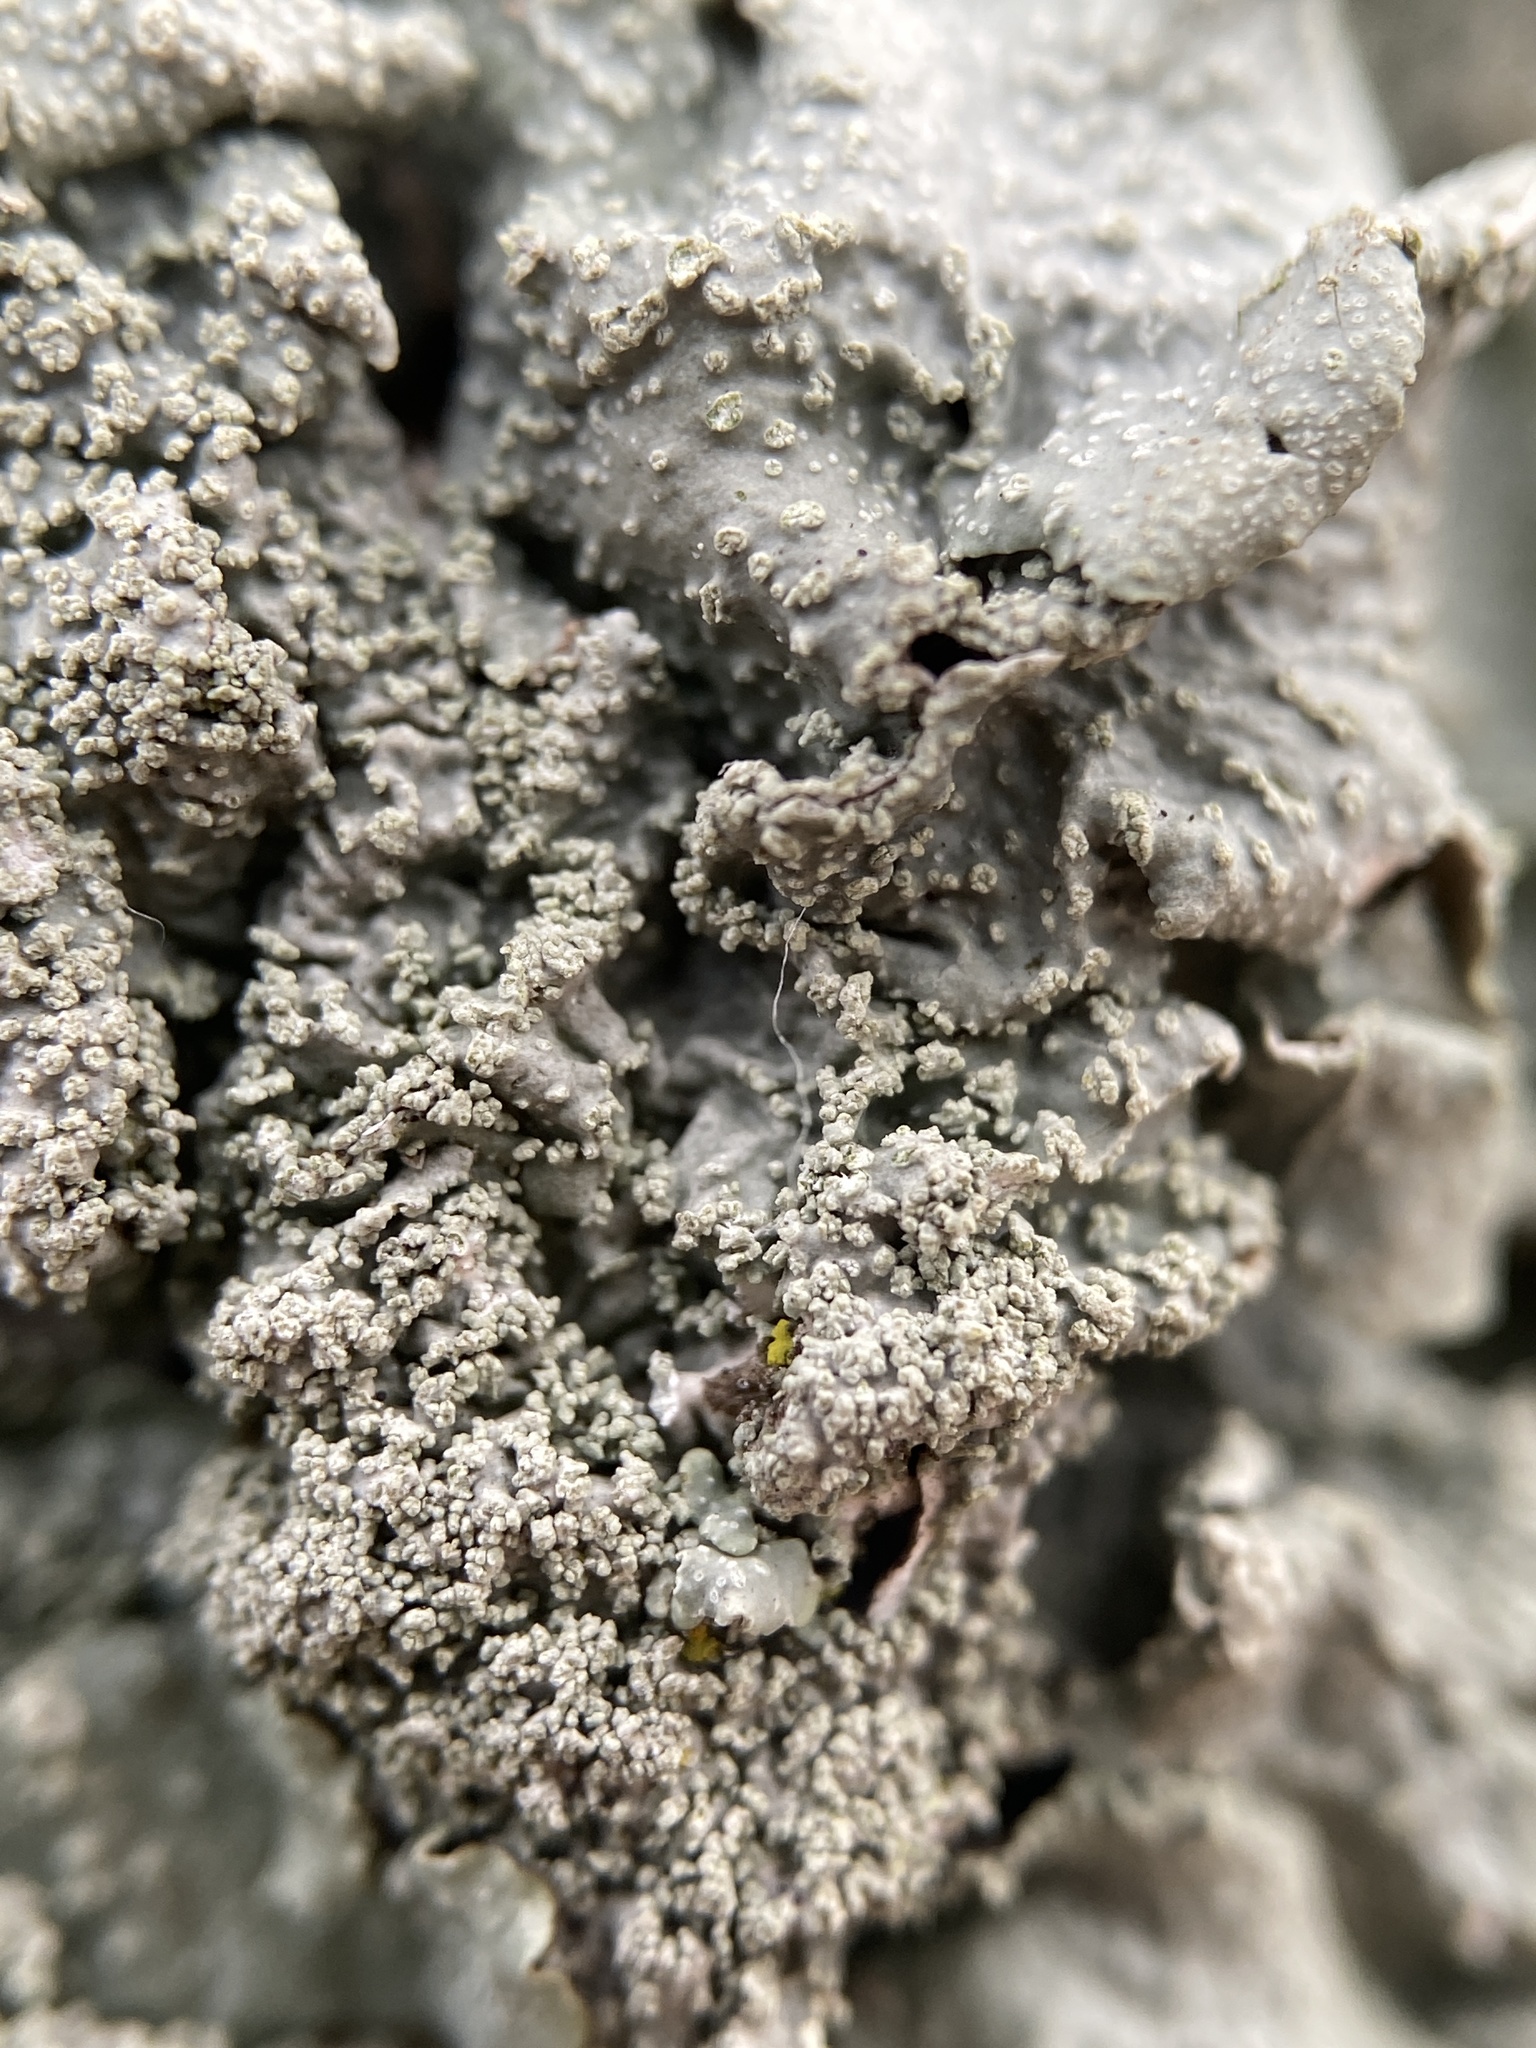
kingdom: Fungi
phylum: Ascomycota
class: Lecanoromycetes
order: Lecanorales
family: Parmeliaceae
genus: Punctelia
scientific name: Punctelia missouriensis
